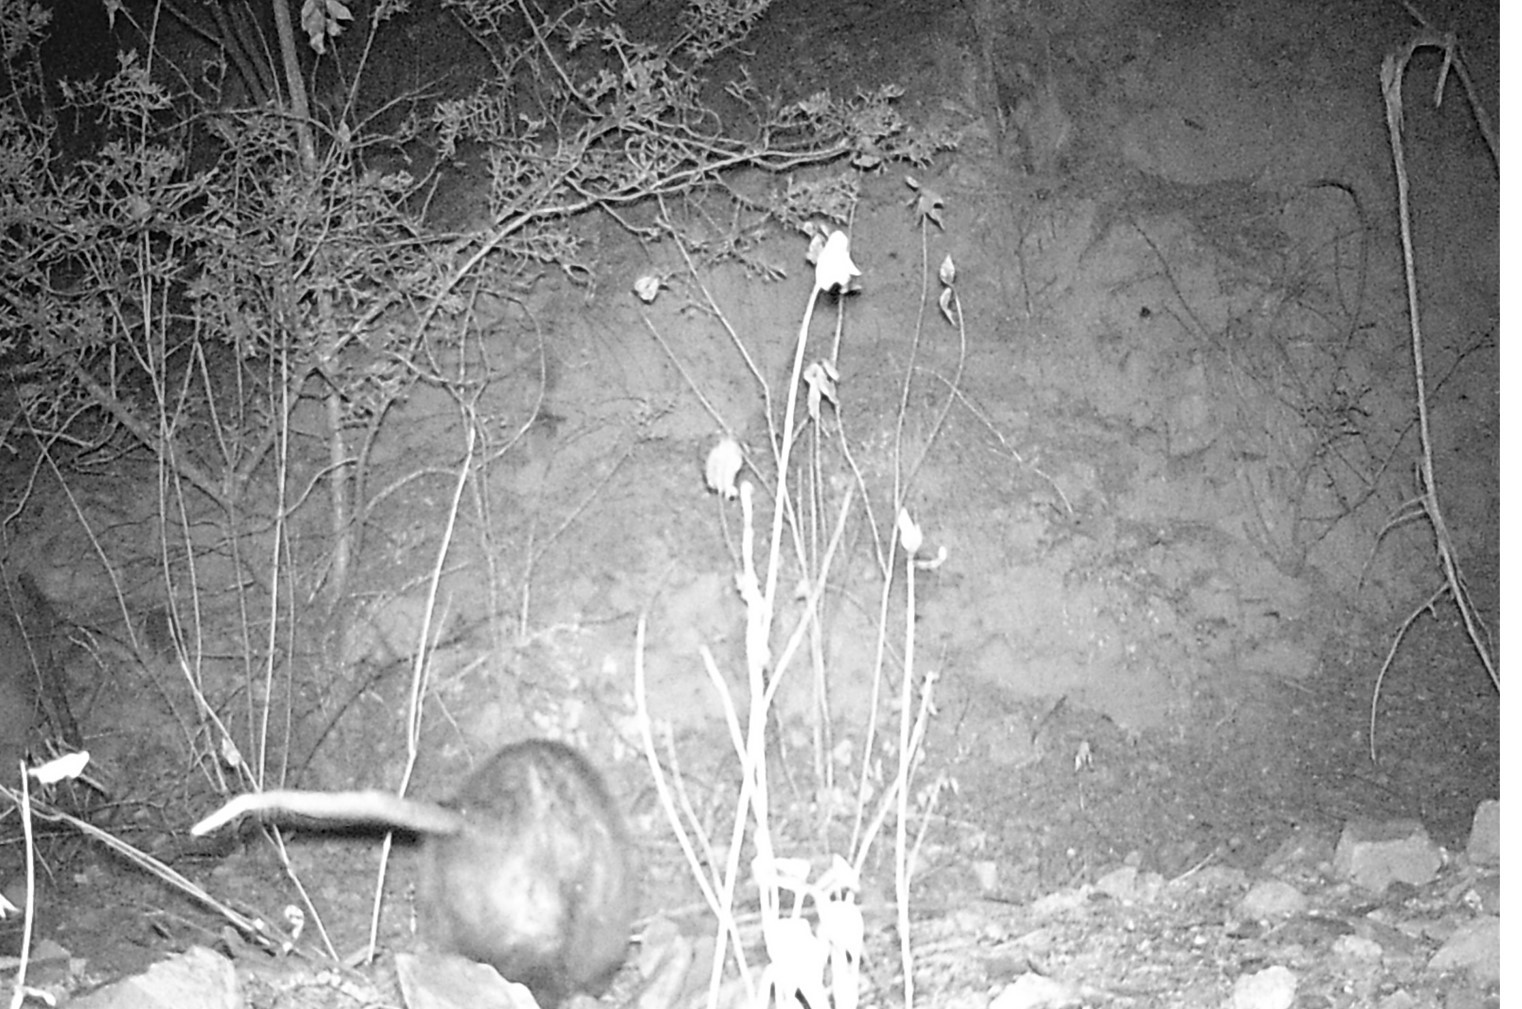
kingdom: Animalia
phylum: Chordata
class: Mammalia
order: Didelphimorphia
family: Didelphidae
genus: Didelphis
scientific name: Didelphis virginiana
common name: Virginia opossum
